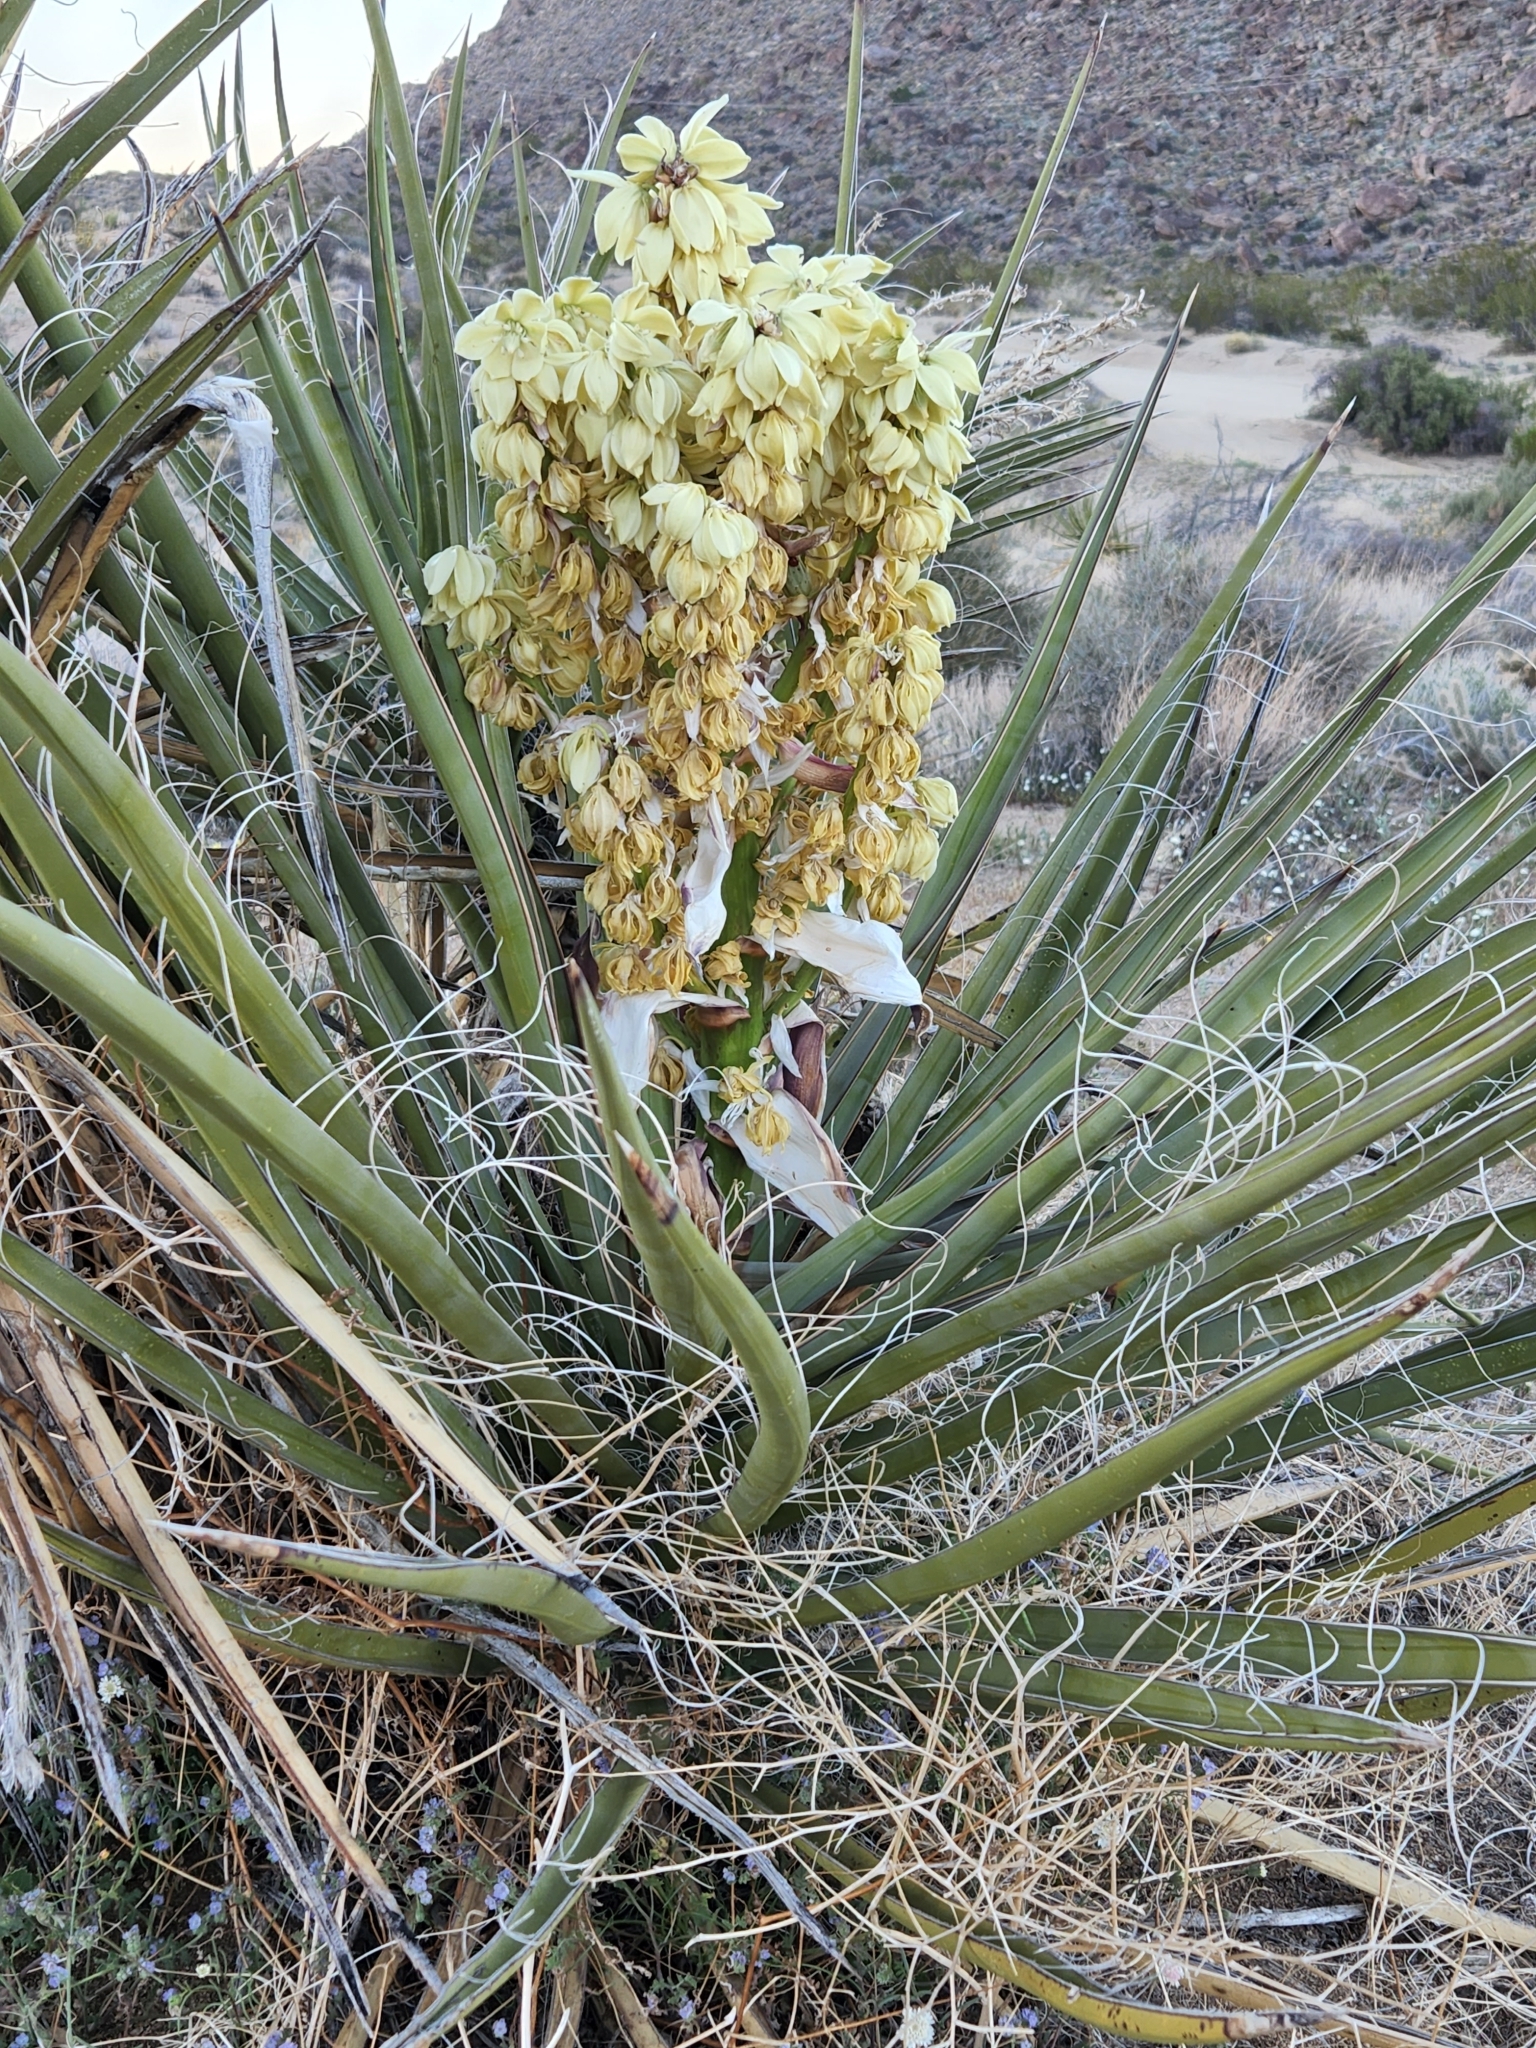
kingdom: Plantae
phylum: Tracheophyta
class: Liliopsida
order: Asparagales
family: Asparagaceae
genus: Yucca
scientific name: Yucca schidigera
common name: Mojave yucca
